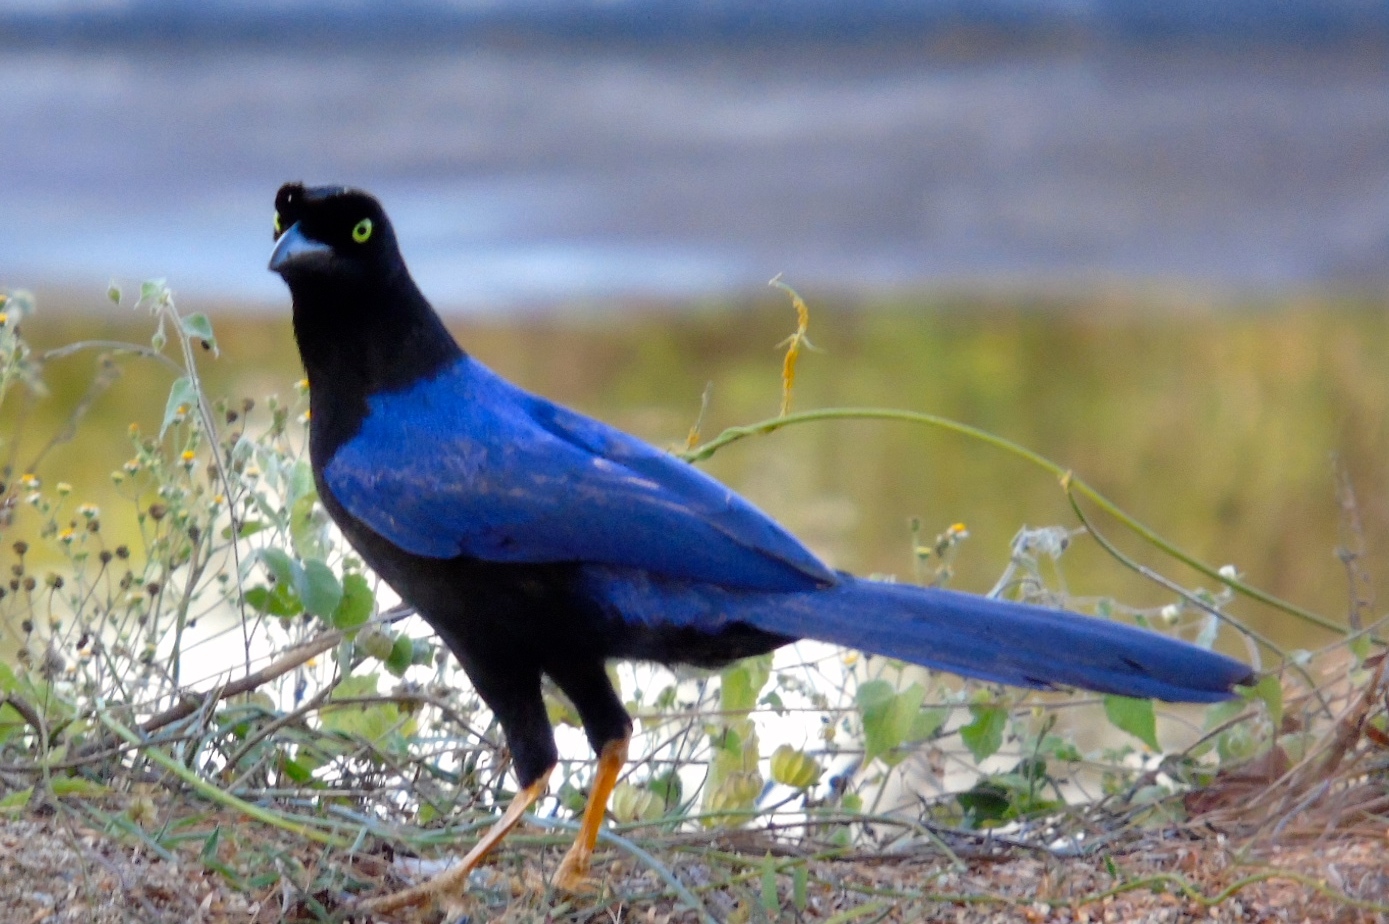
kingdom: Animalia
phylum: Chordata
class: Aves
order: Passeriformes
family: Corvidae
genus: Cyanocorax
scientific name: Cyanocorax beecheii
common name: Purplish-backed jay
